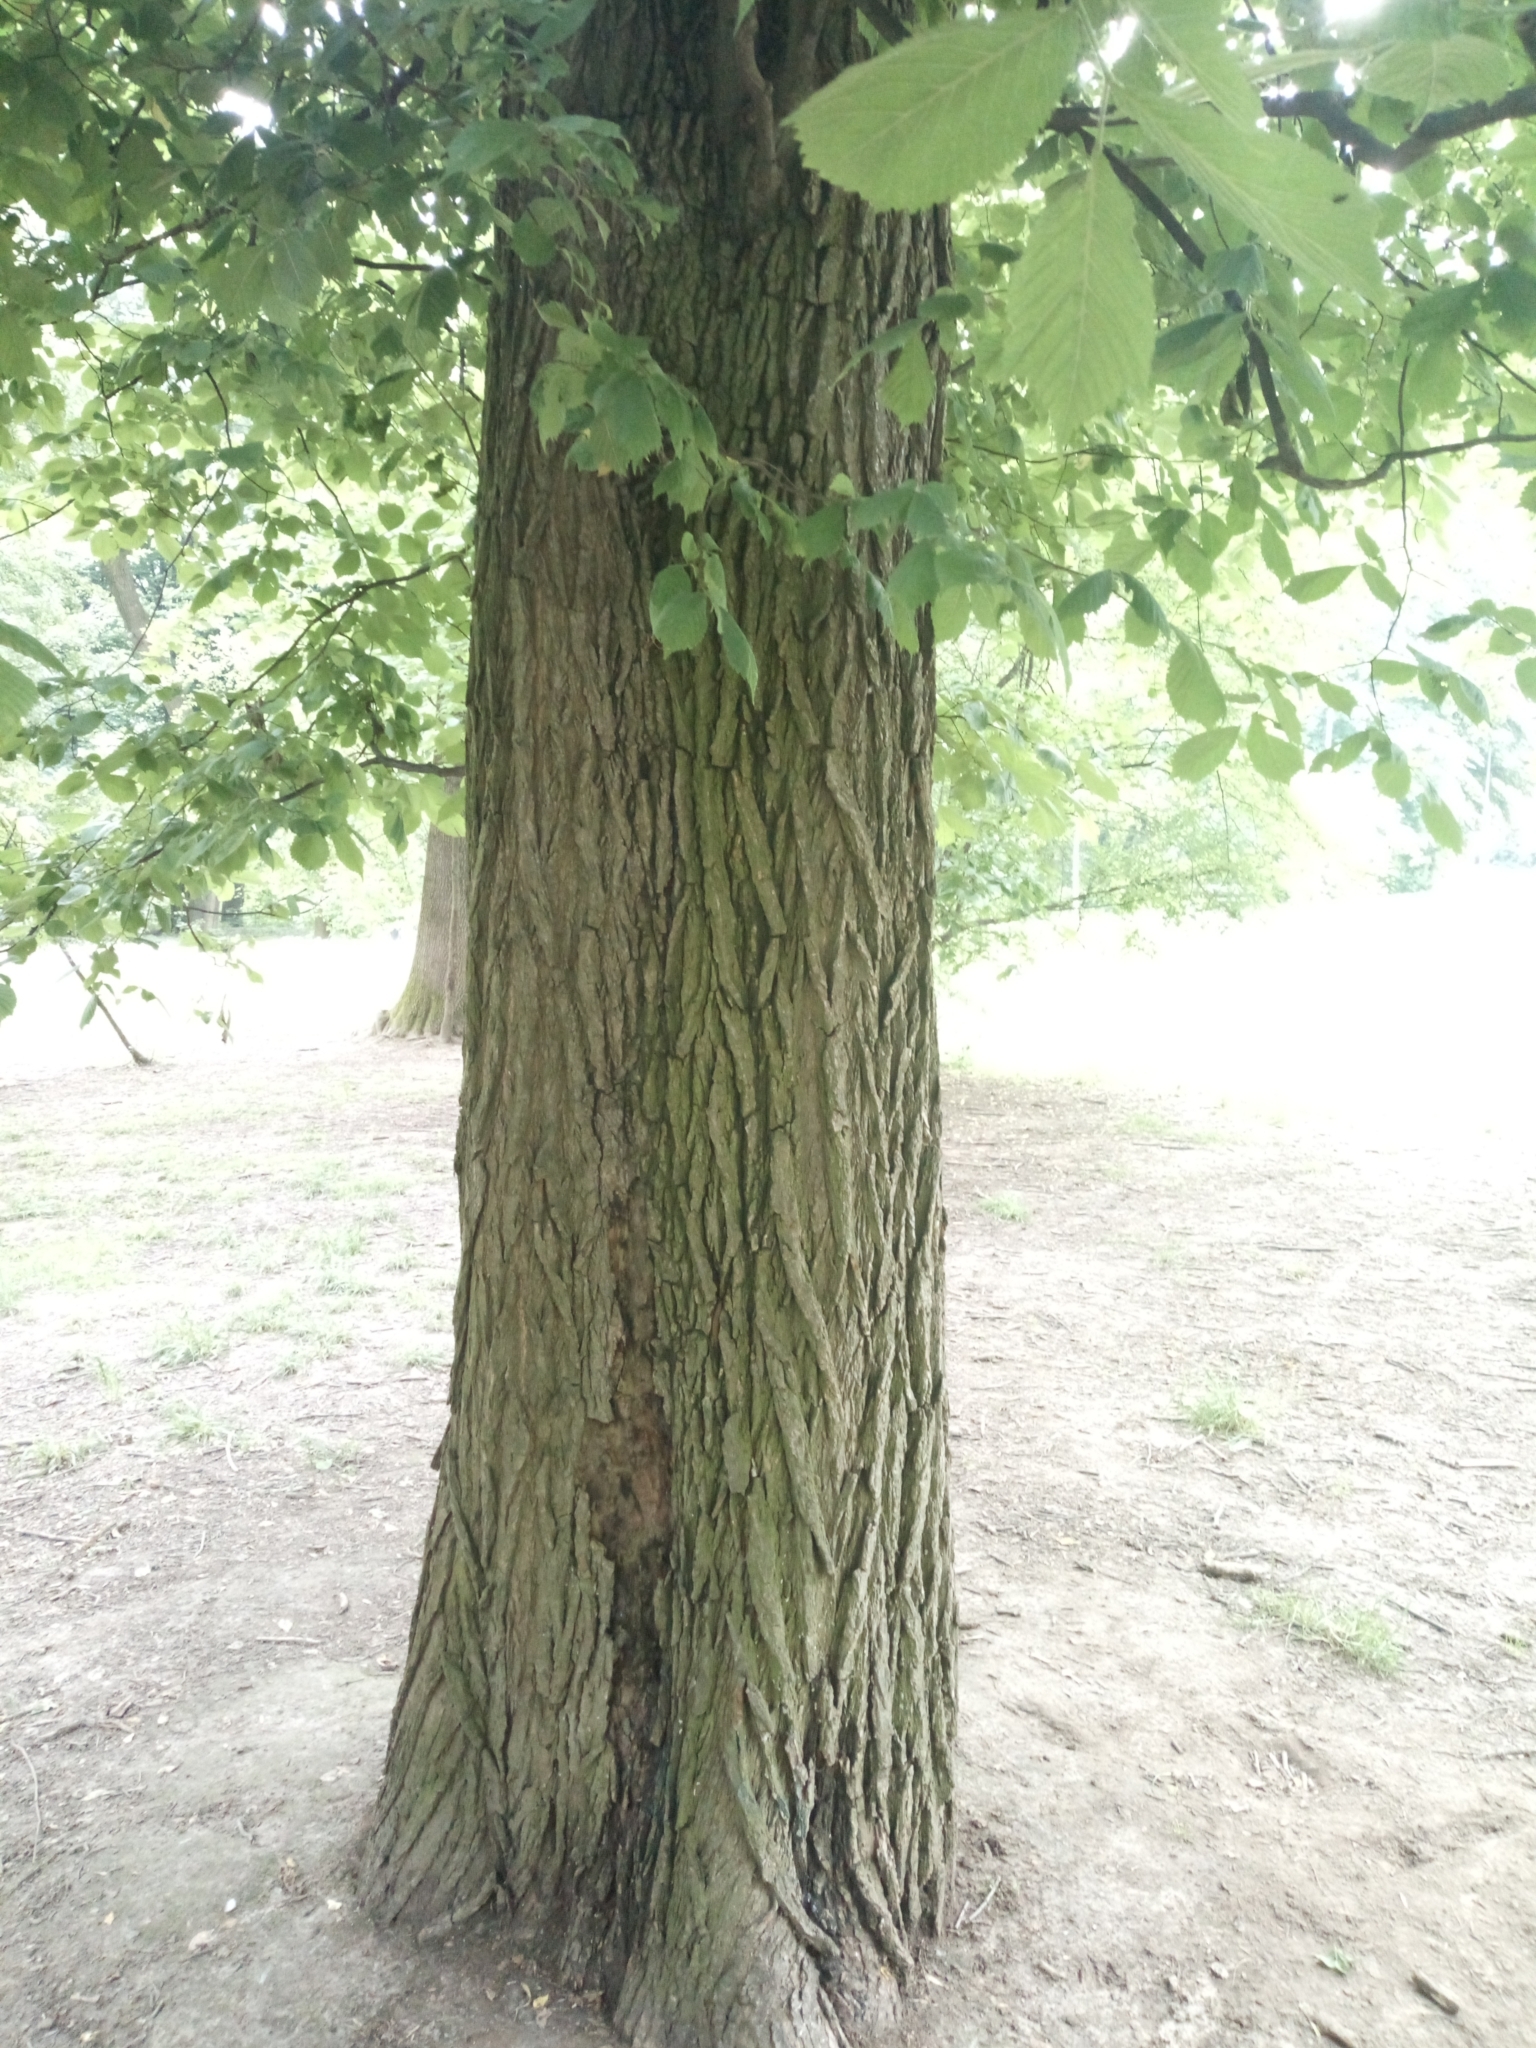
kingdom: Plantae
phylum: Tracheophyta
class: Magnoliopsida
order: Rosales
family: Ulmaceae
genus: Ulmus
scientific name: Ulmus glabra
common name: Wych elm
